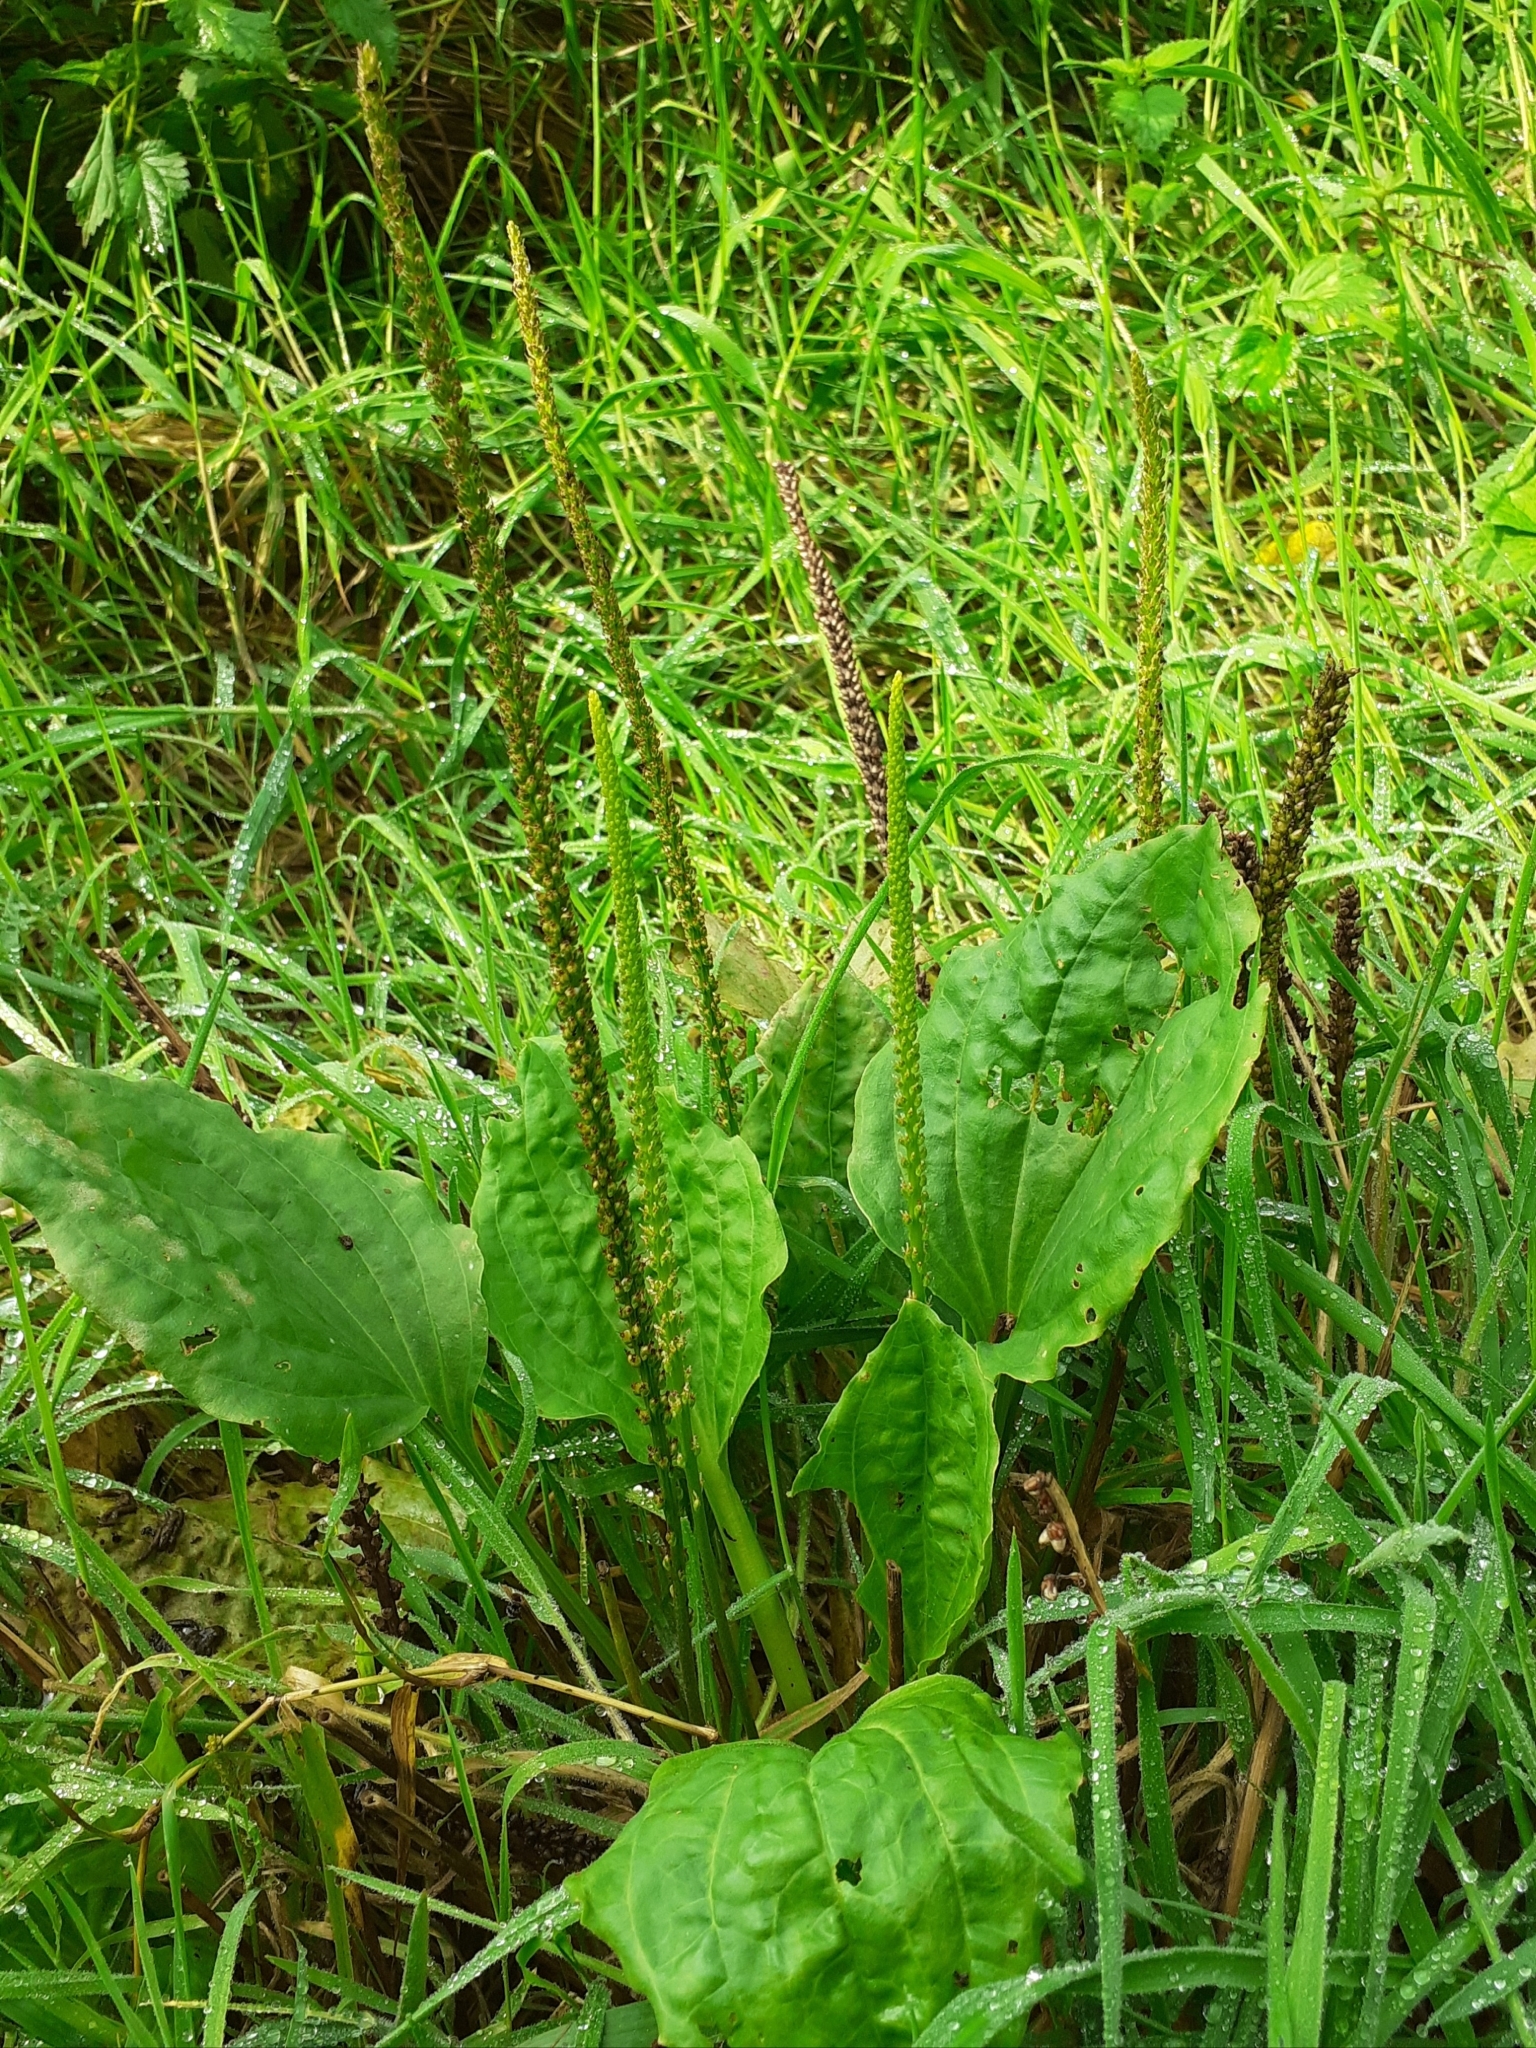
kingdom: Plantae
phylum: Tracheophyta
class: Magnoliopsida
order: Lamiales
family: Plantaginaceae
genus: Plantago
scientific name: Plantago major
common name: Common plantain
